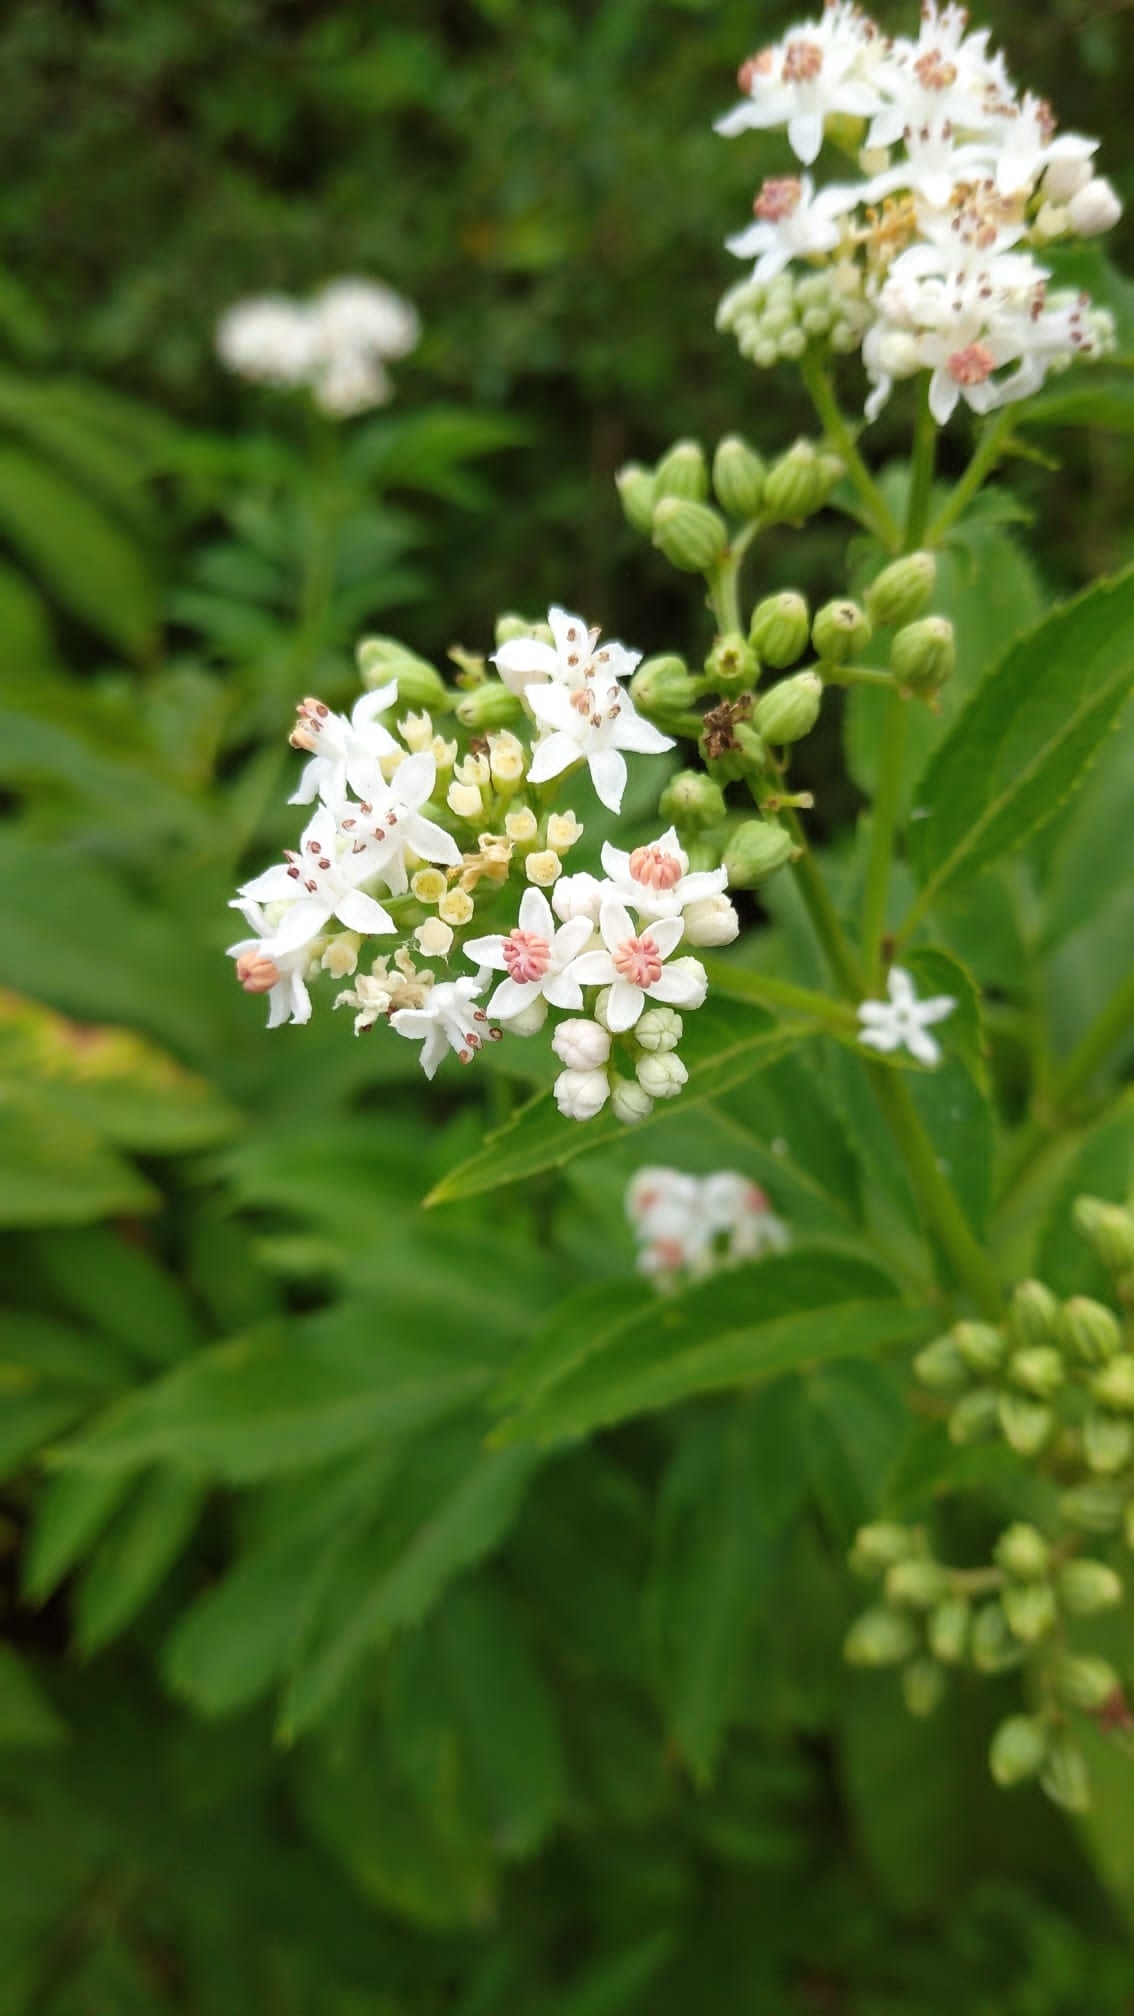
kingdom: Plantae
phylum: Tracheophyta
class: Magnoliopsida
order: Dipsacales
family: Viburnaceae
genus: Sambucus
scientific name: Sambucus ebulus
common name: Dwarf elder
